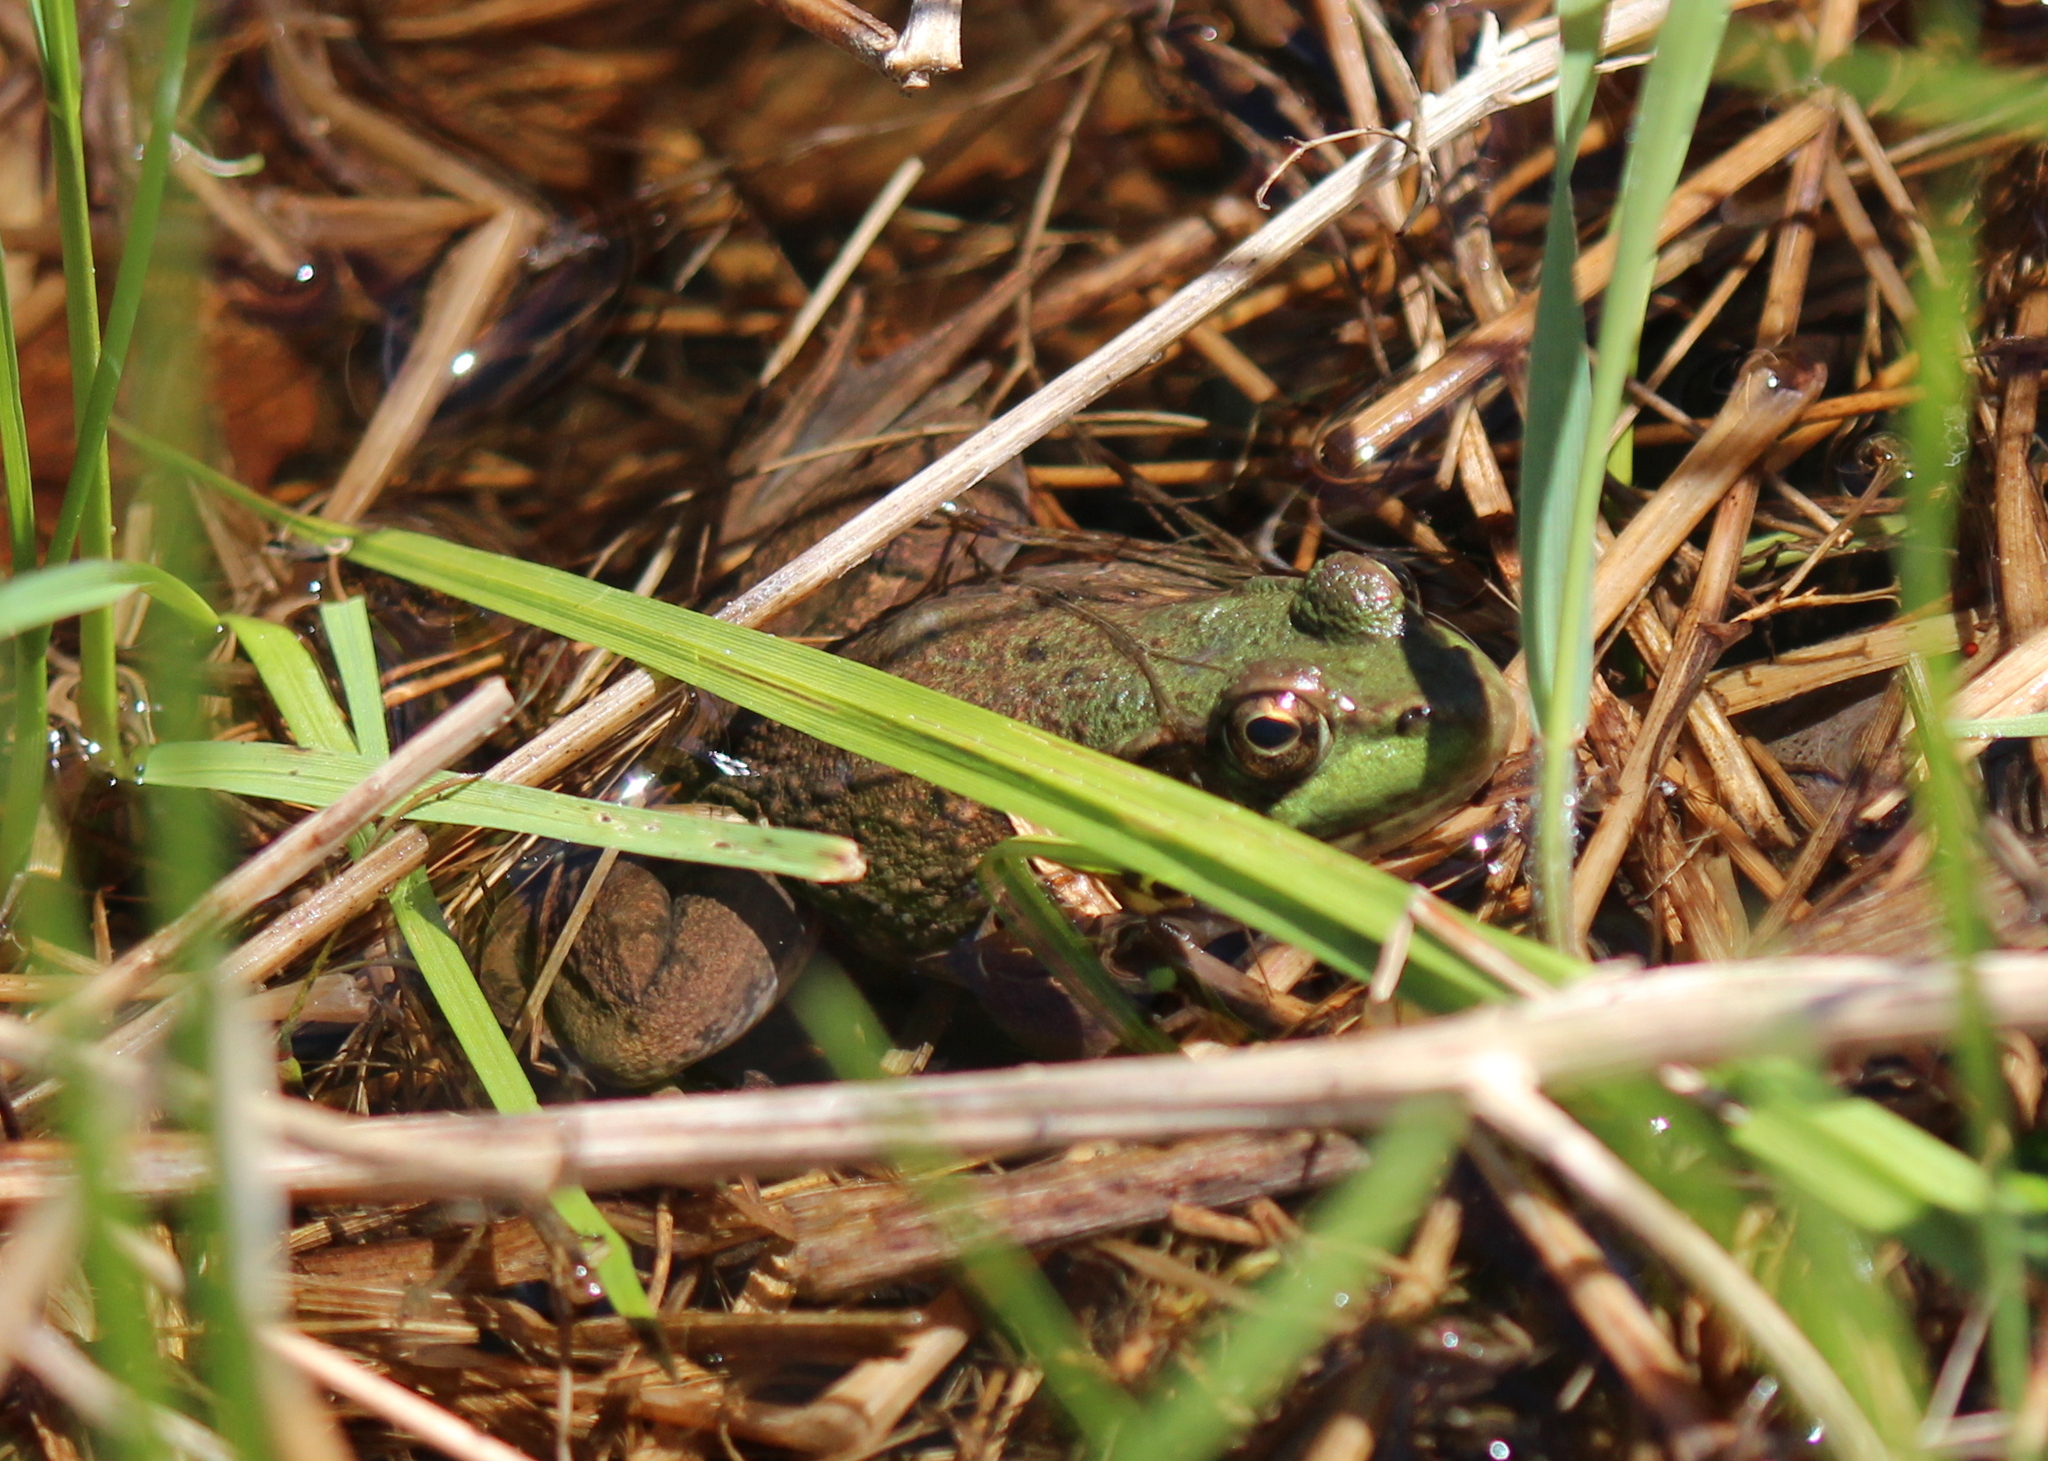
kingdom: Animalia
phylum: Chordata
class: Amphibia
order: Anura
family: Ranidae
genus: Lithobates
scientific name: Lithobates clamitans
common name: Green frog
